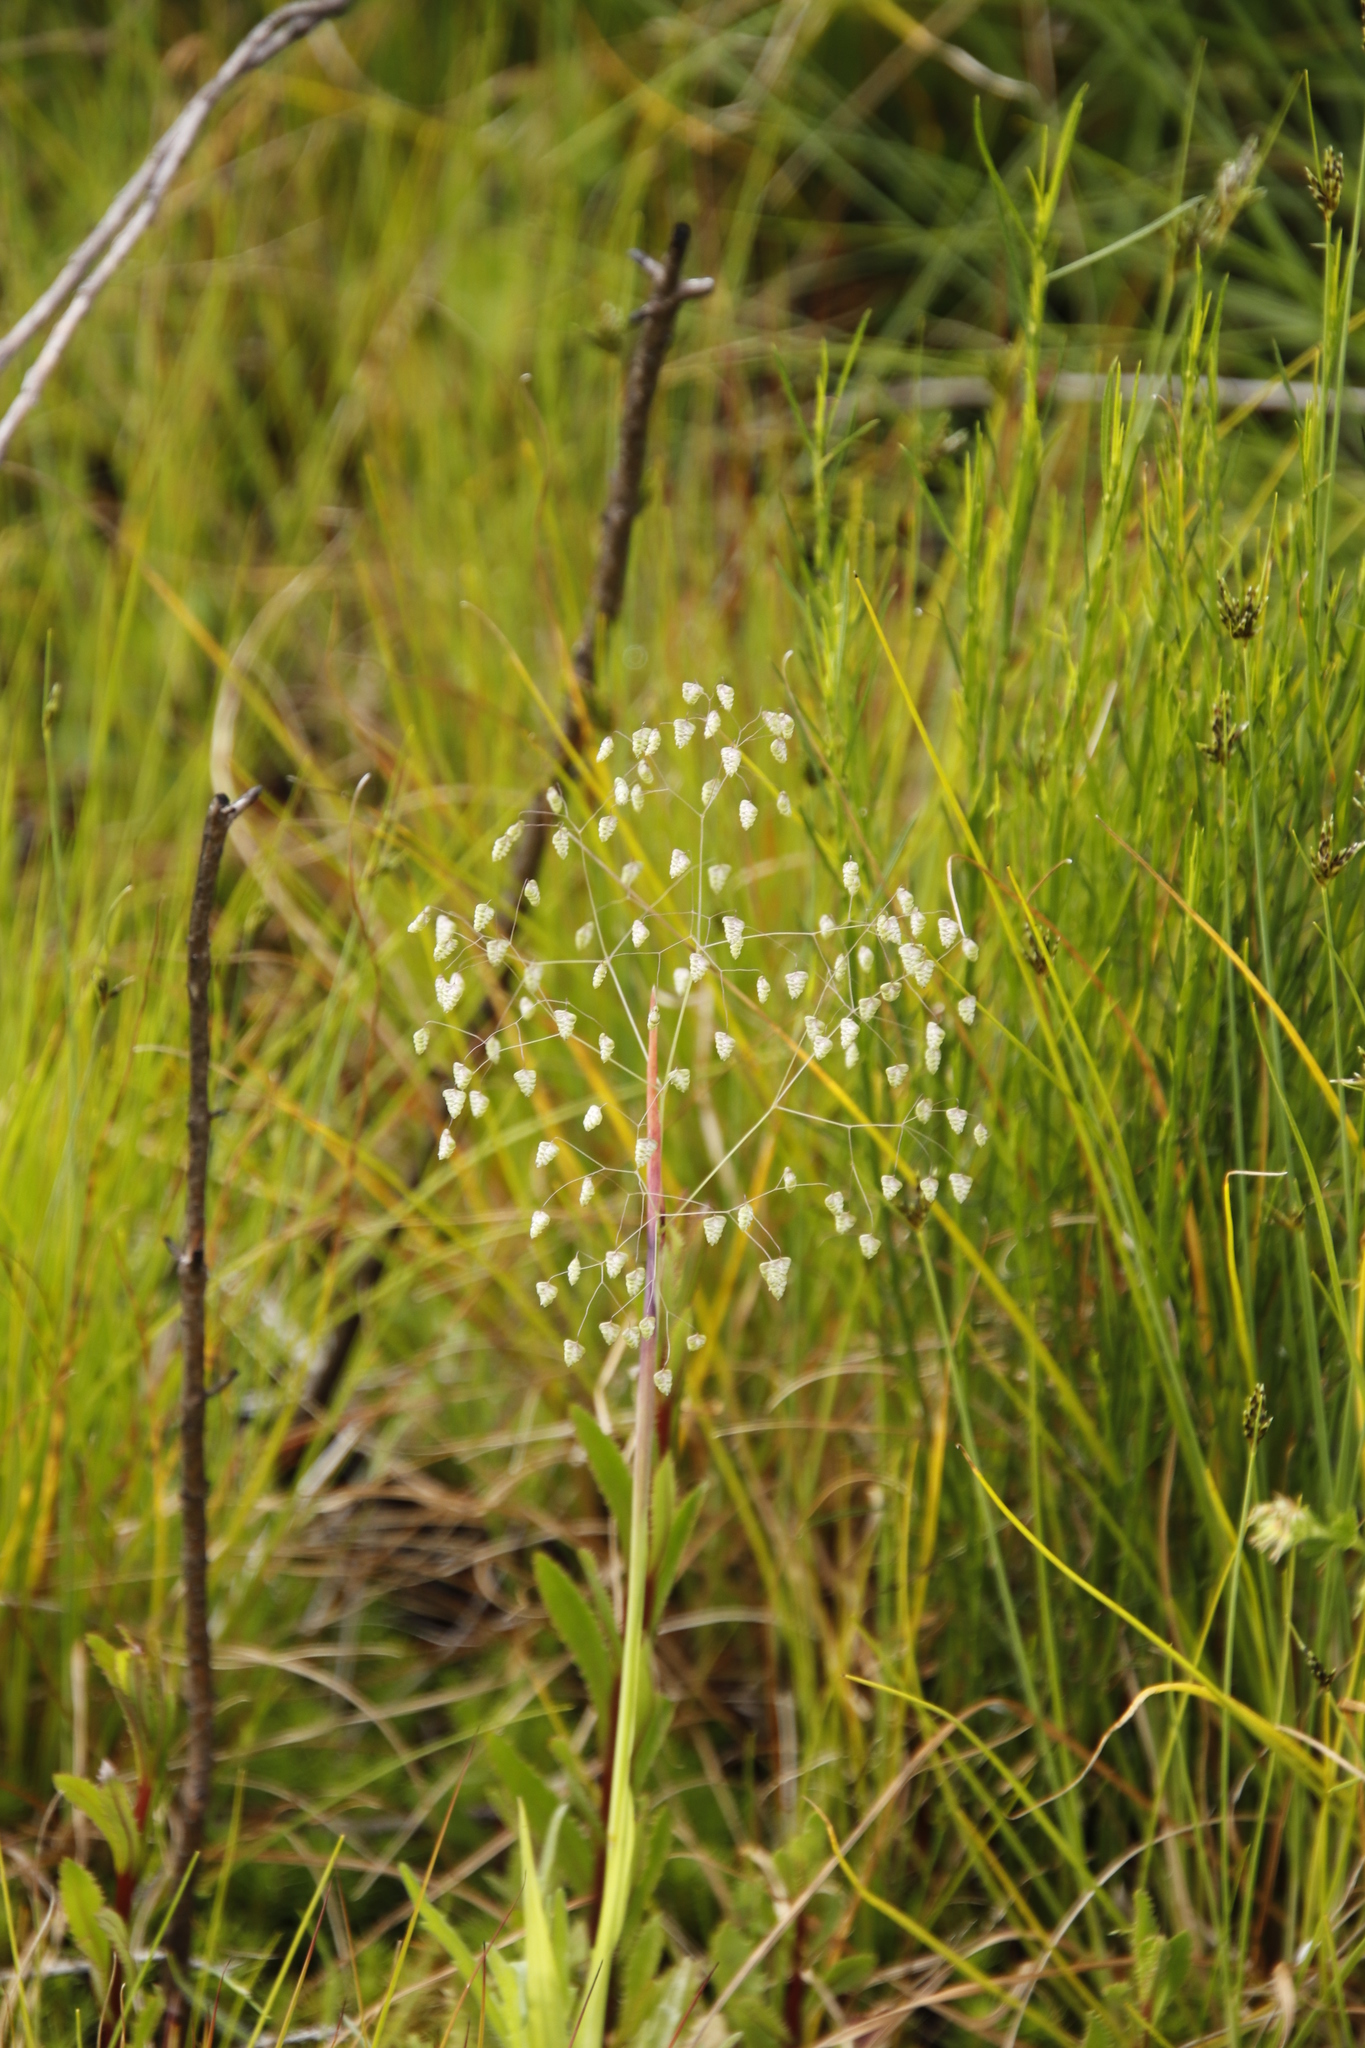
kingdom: Plantae
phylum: Tracheophyta
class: Liliopsida
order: Poales
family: Poaceae
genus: Briza
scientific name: Briza minor
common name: Lesser quaking-grass
